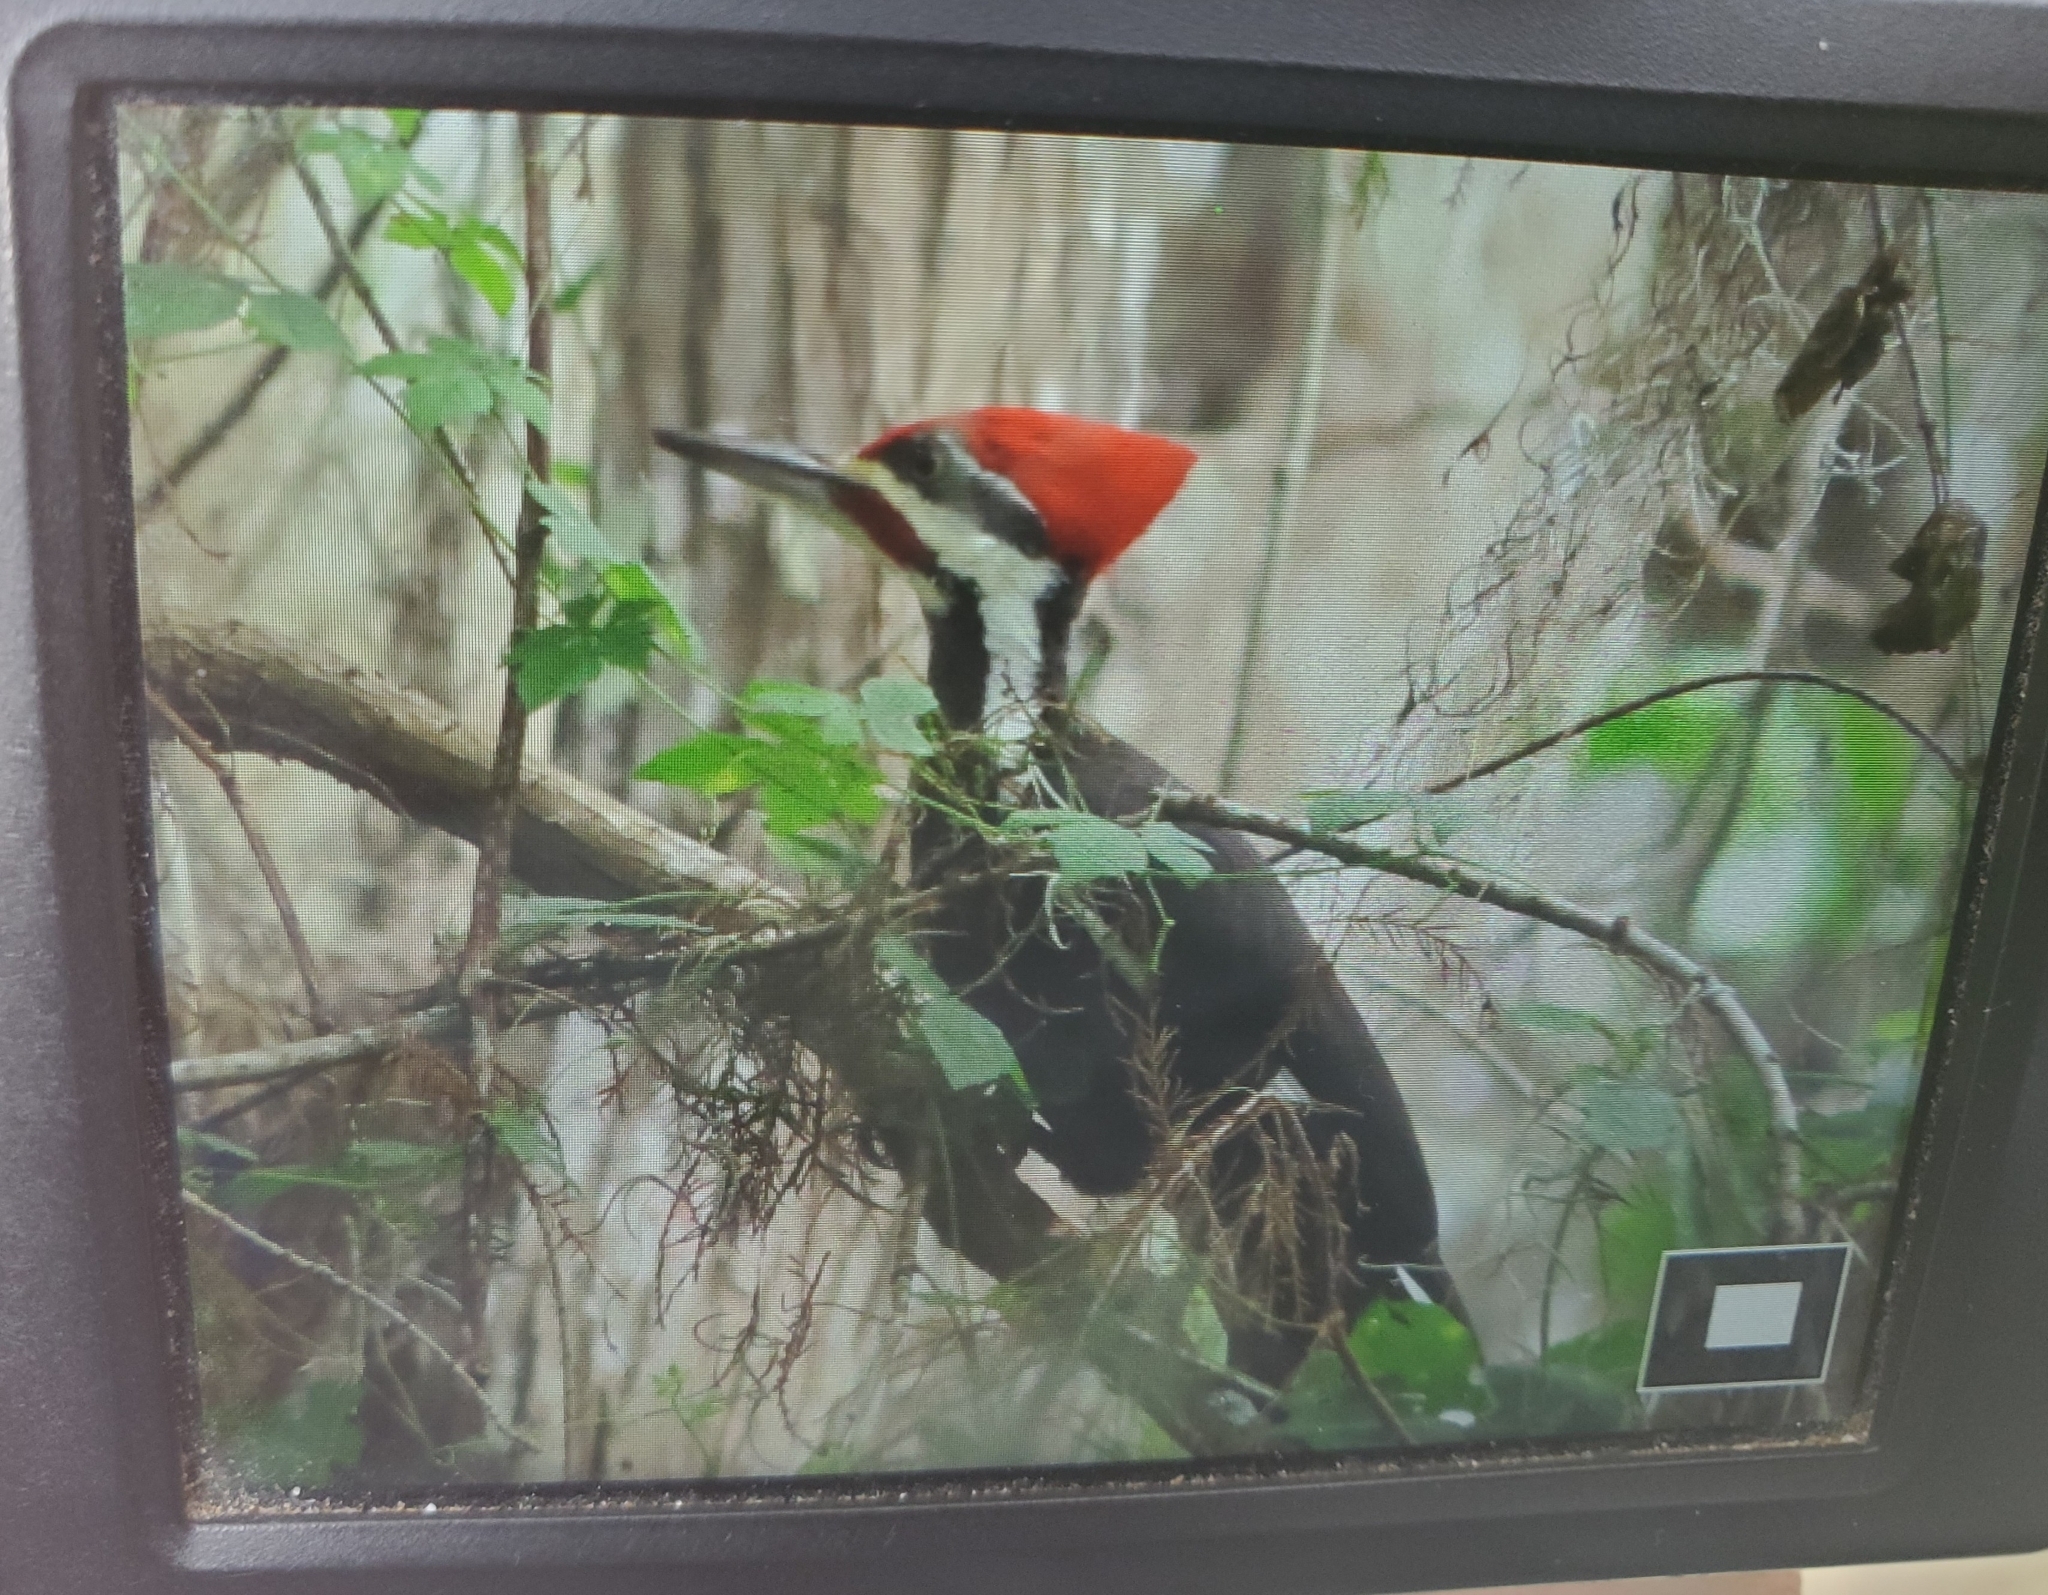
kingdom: Animalia
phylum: Chordata
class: Aves
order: Piciformes
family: Picidae
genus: Dryocopus
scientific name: Dryocopus pileatus
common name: Pileated woodpecker
